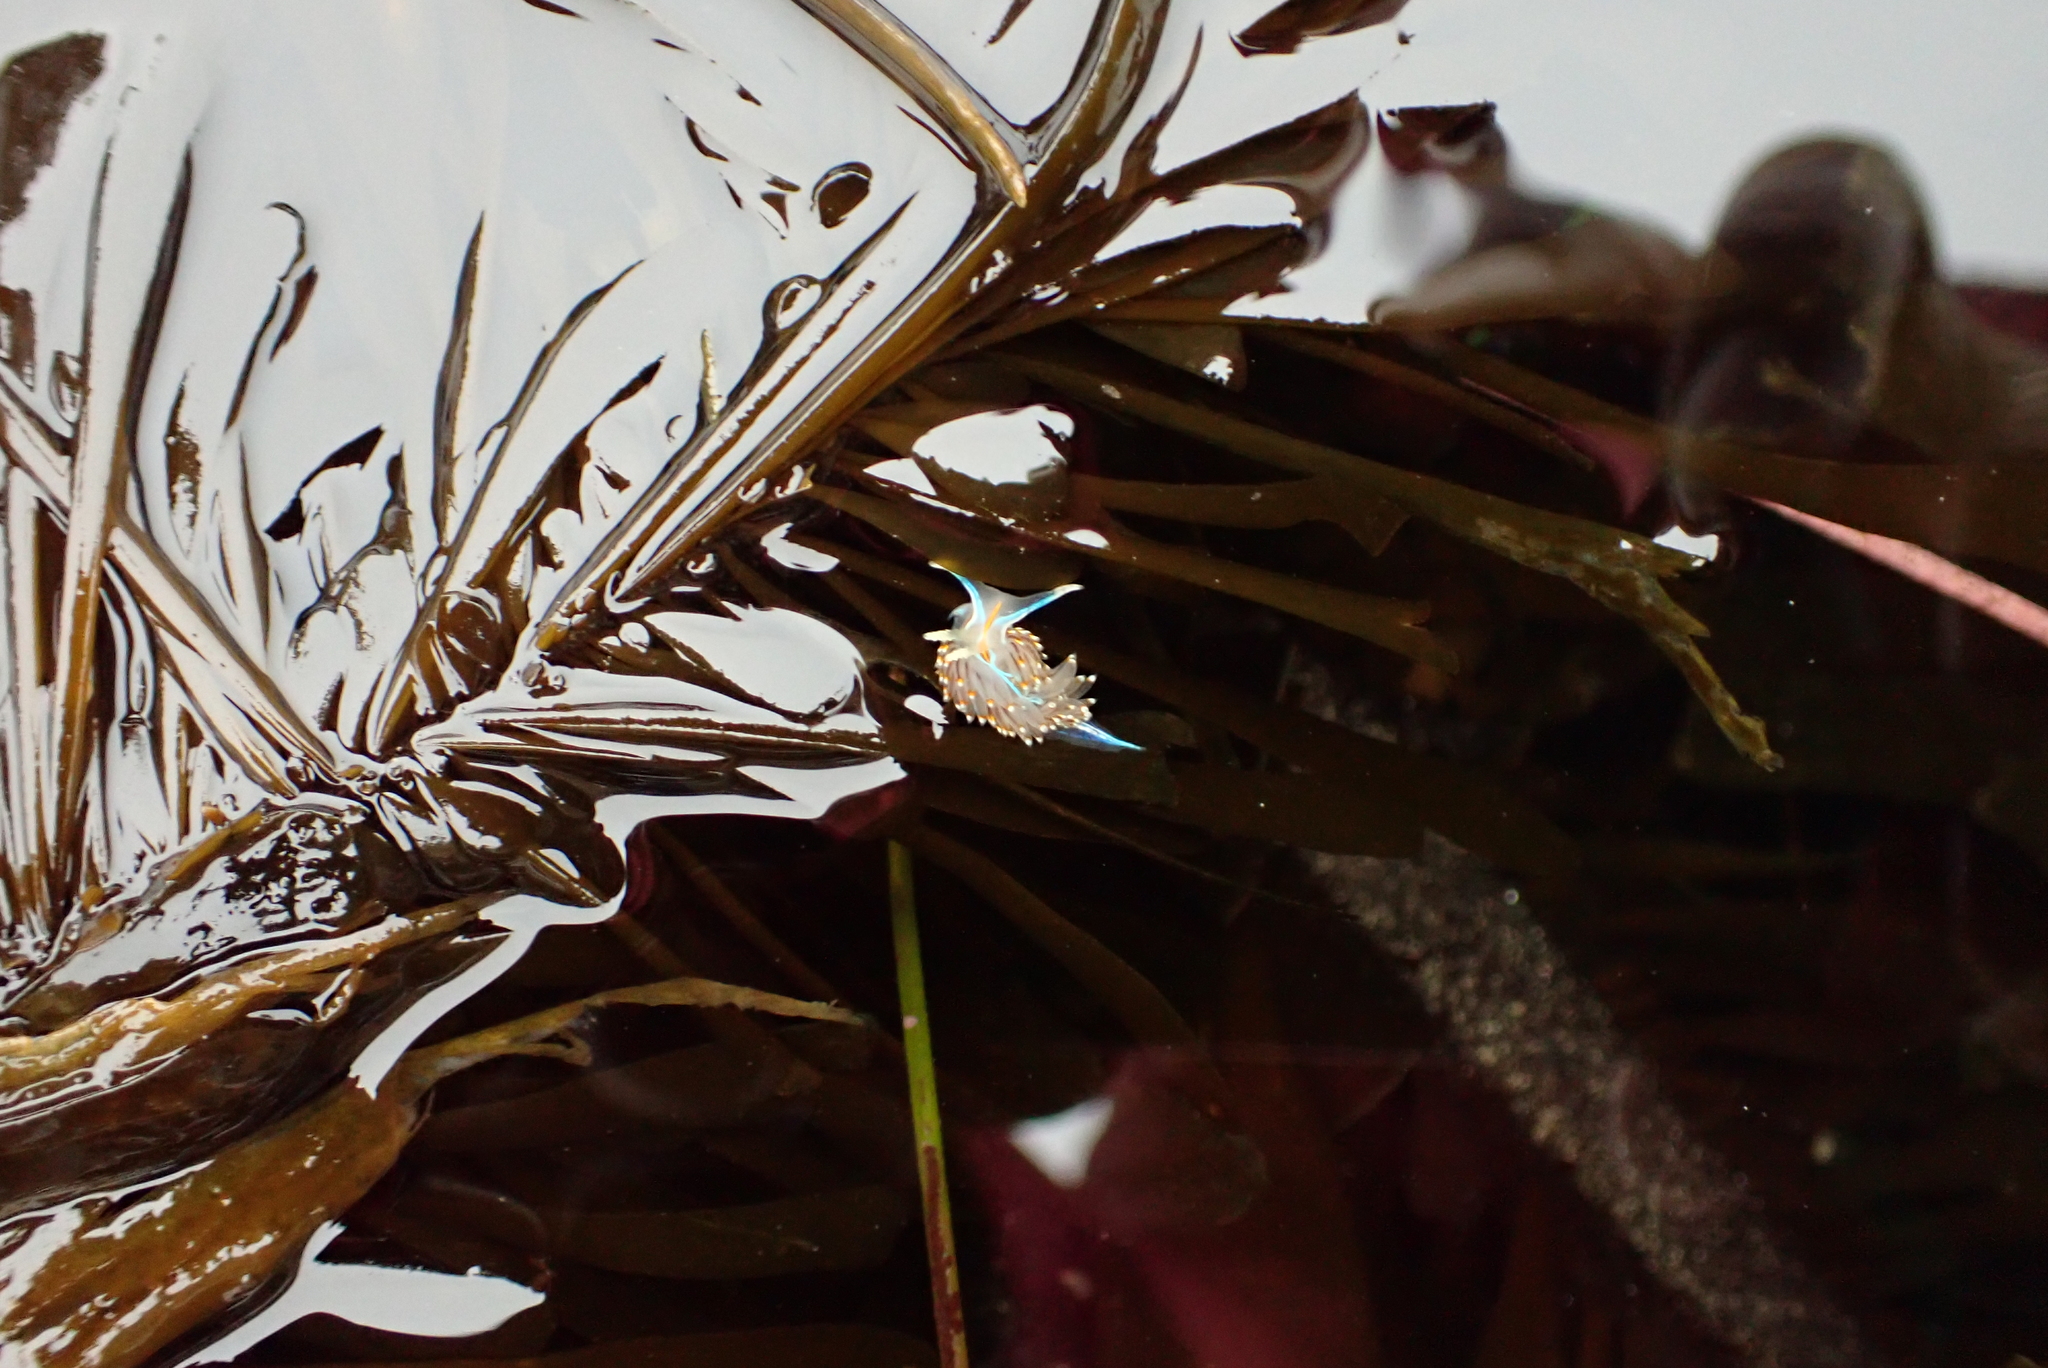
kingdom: Animalia
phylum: Mollusca
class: Gastropoda
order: Nudibranchia
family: Myrrhinidae
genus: Hermissenda
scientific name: Hermissenda opalescens
